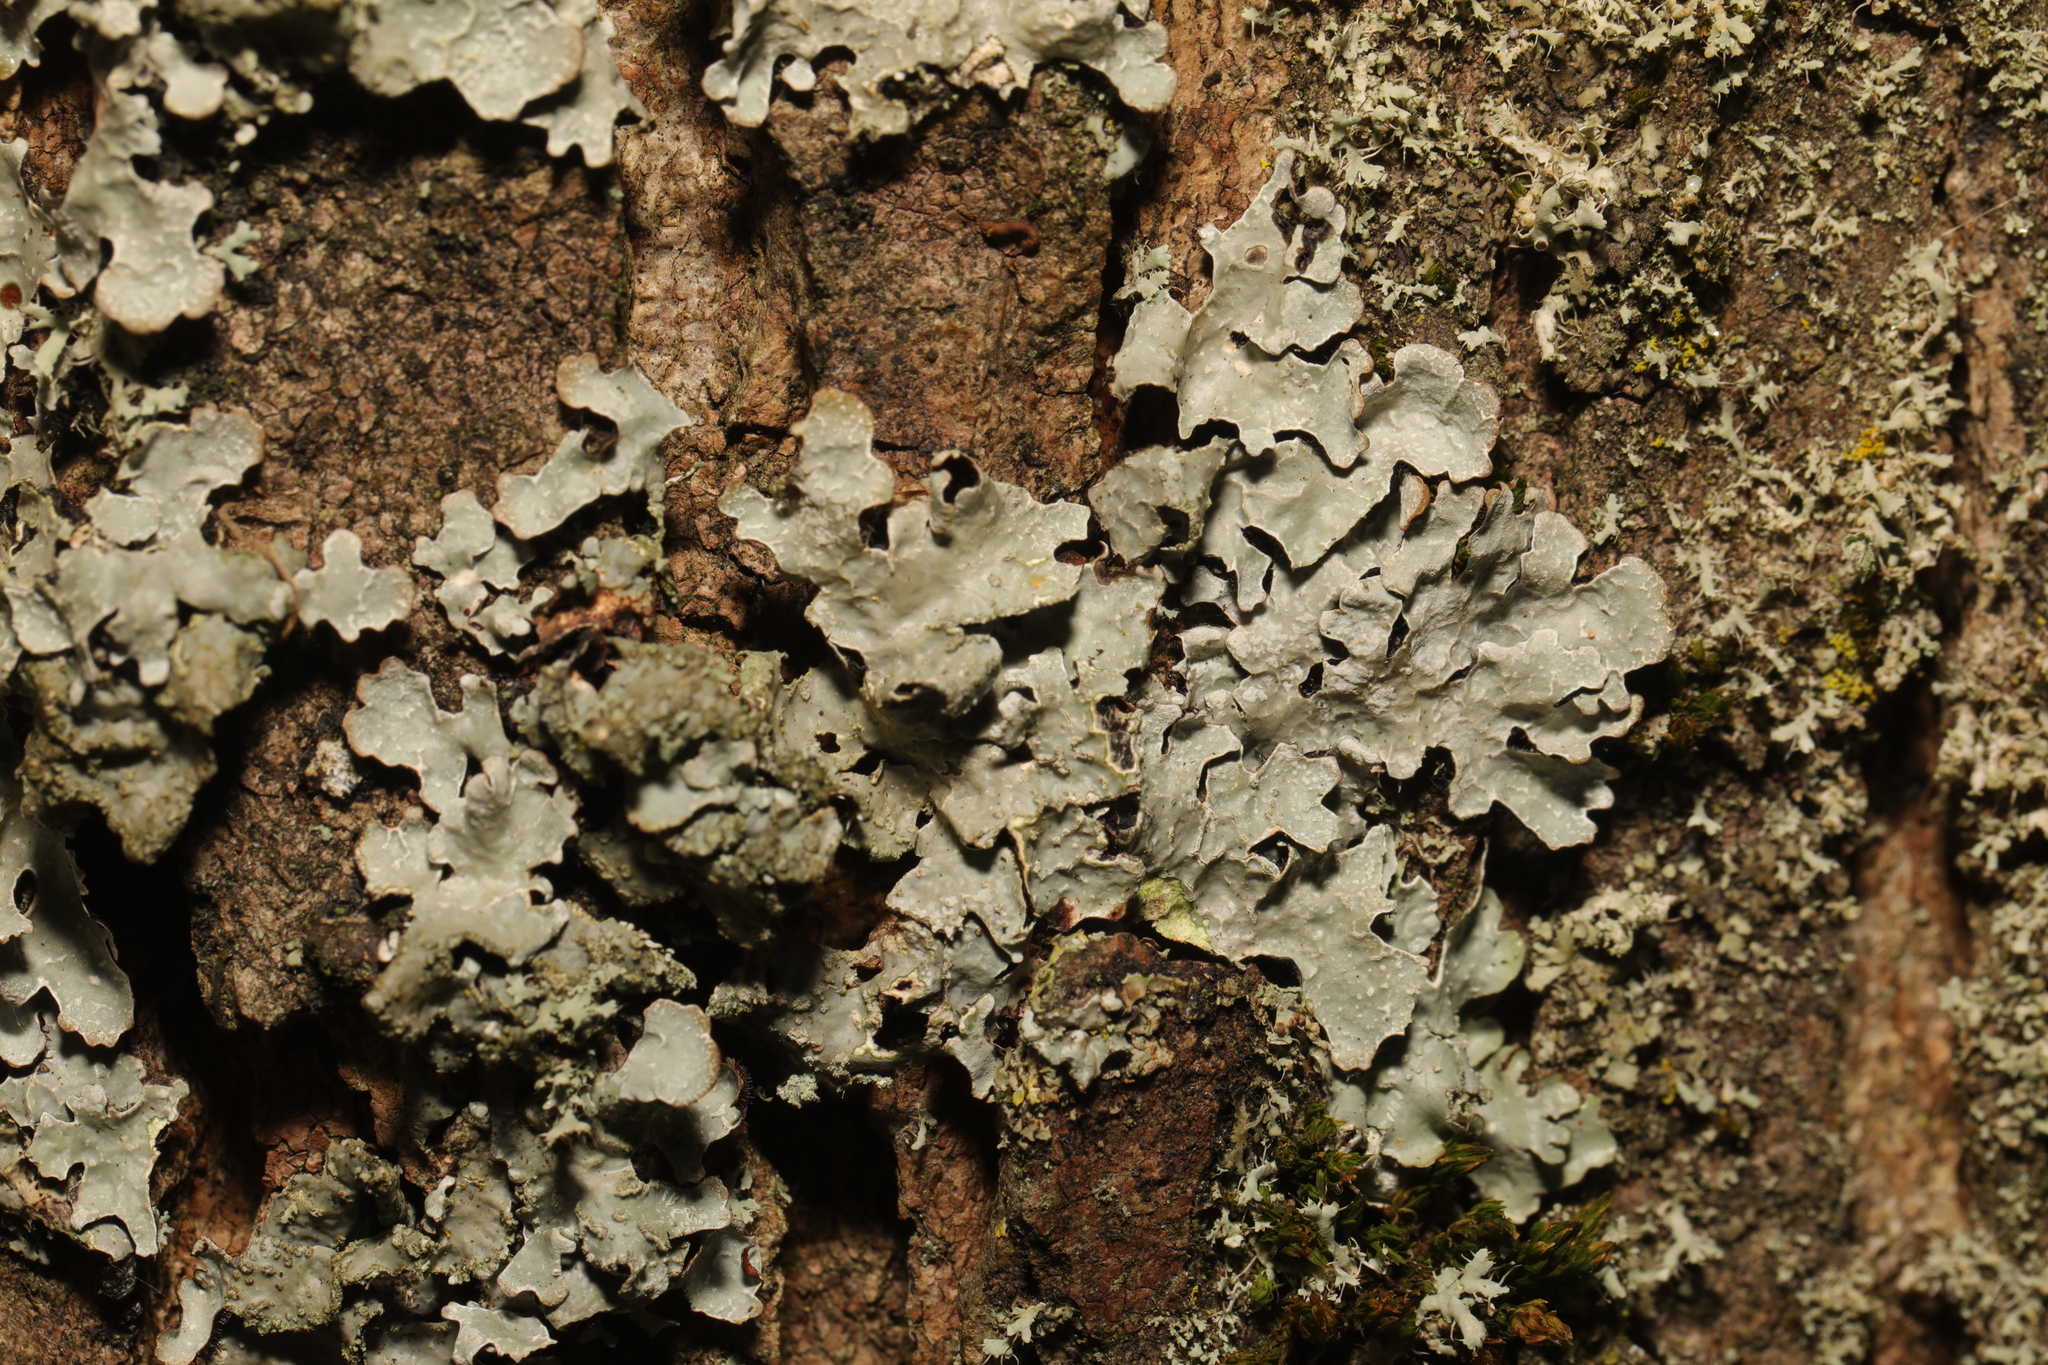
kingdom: Fungi
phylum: Ascomycota
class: Lecanoromycetes
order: Lecanorales
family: Parmeliaceae
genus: Parmelia
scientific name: Parmelia sulcata
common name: Netted shield lichen
